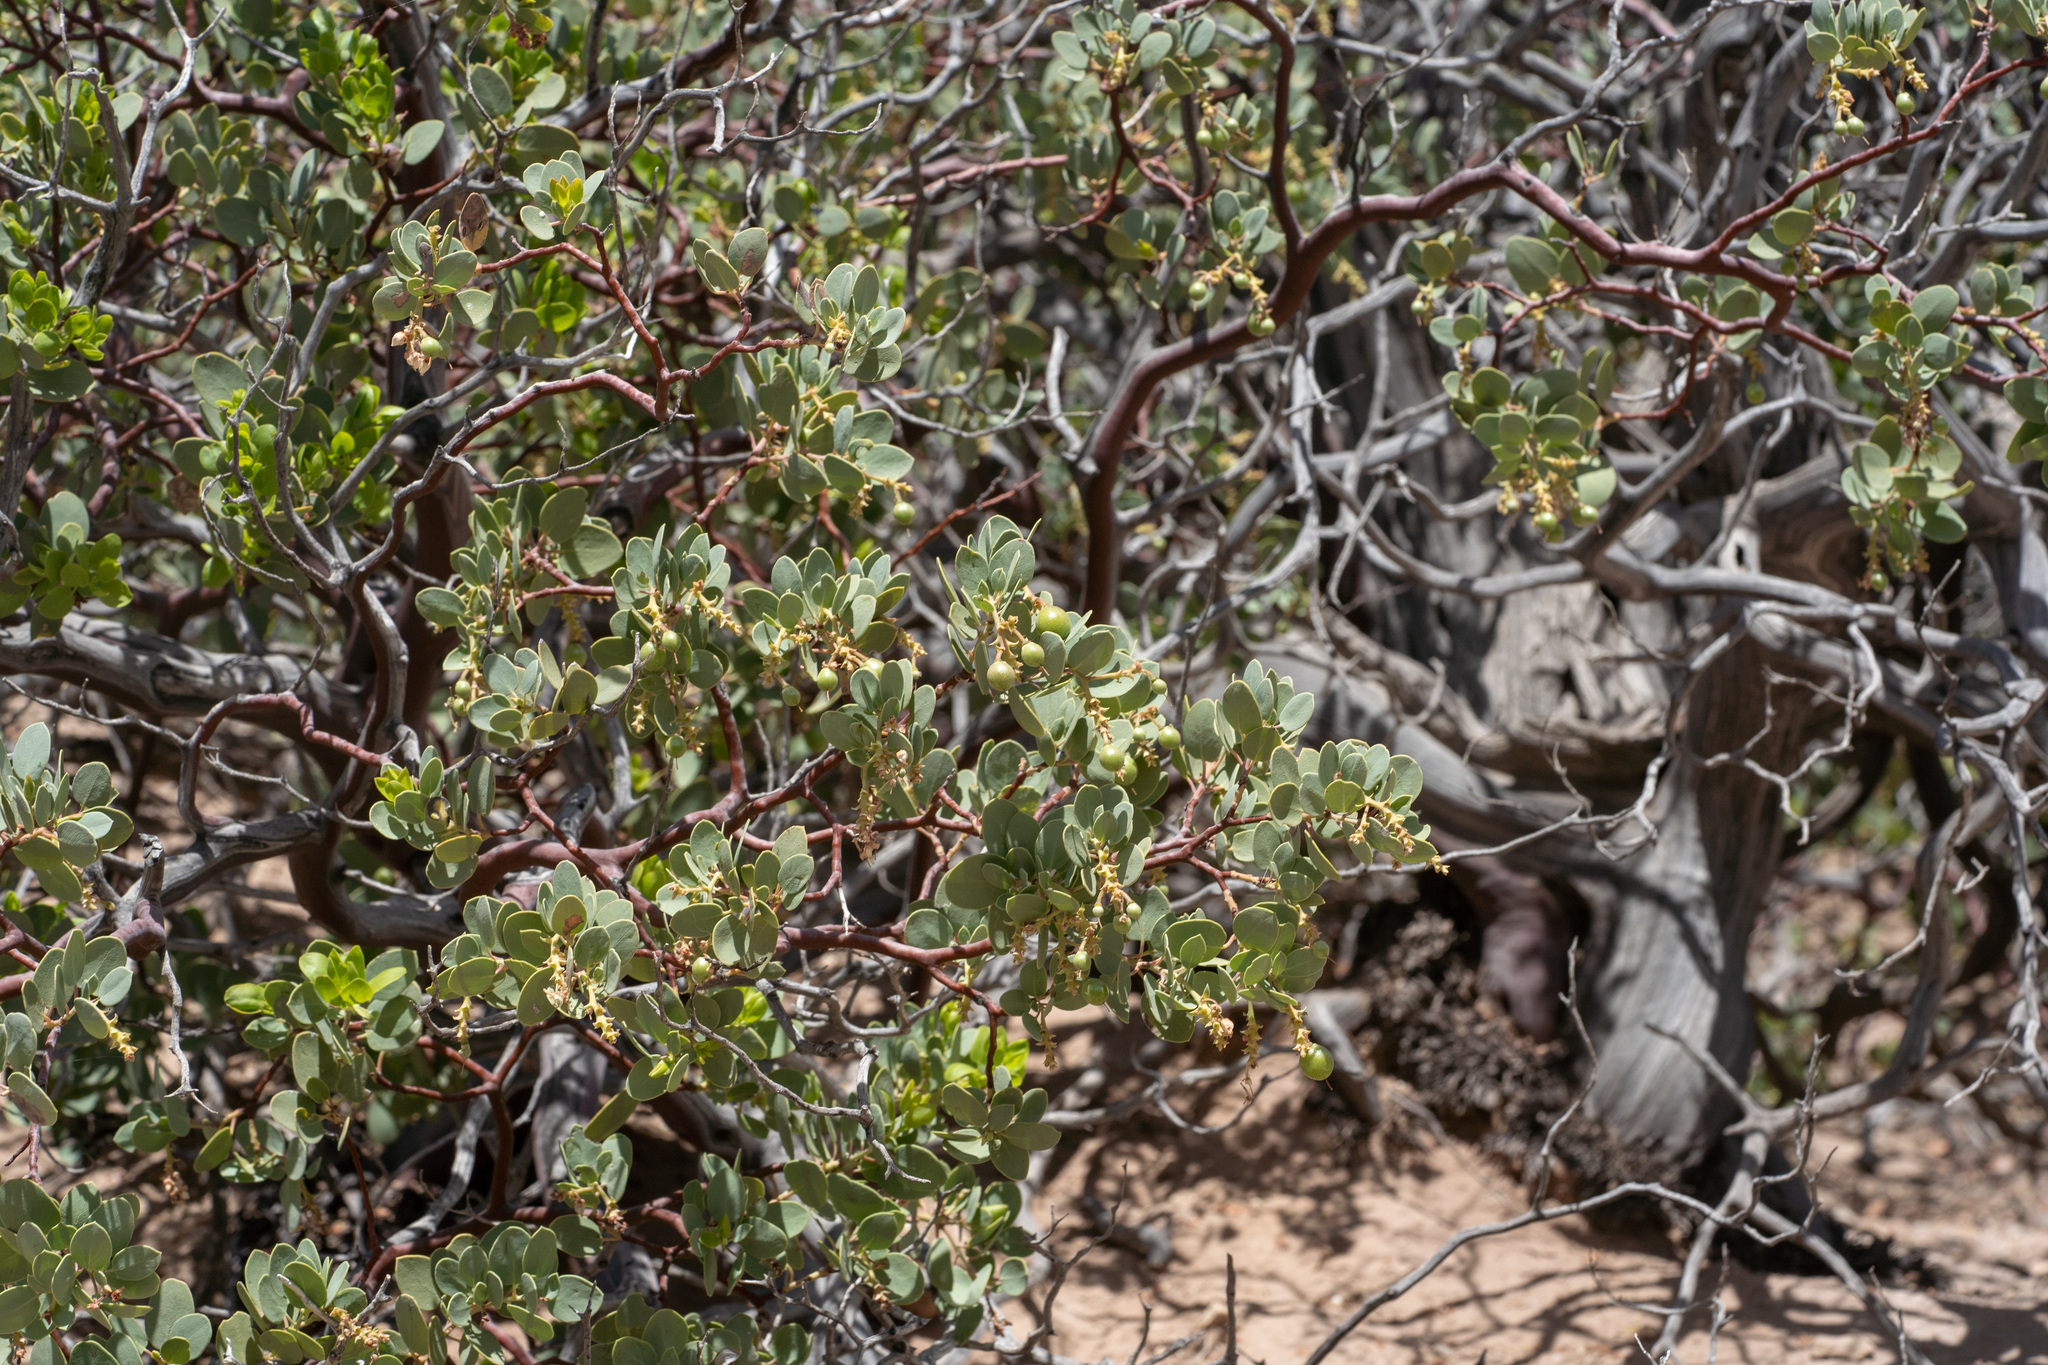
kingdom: Plantae
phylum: Tracheophyta
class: Magnoliopsida
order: Ericales
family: Ericaceae
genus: Arctostaphylos
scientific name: Arctostaphylos glauca
